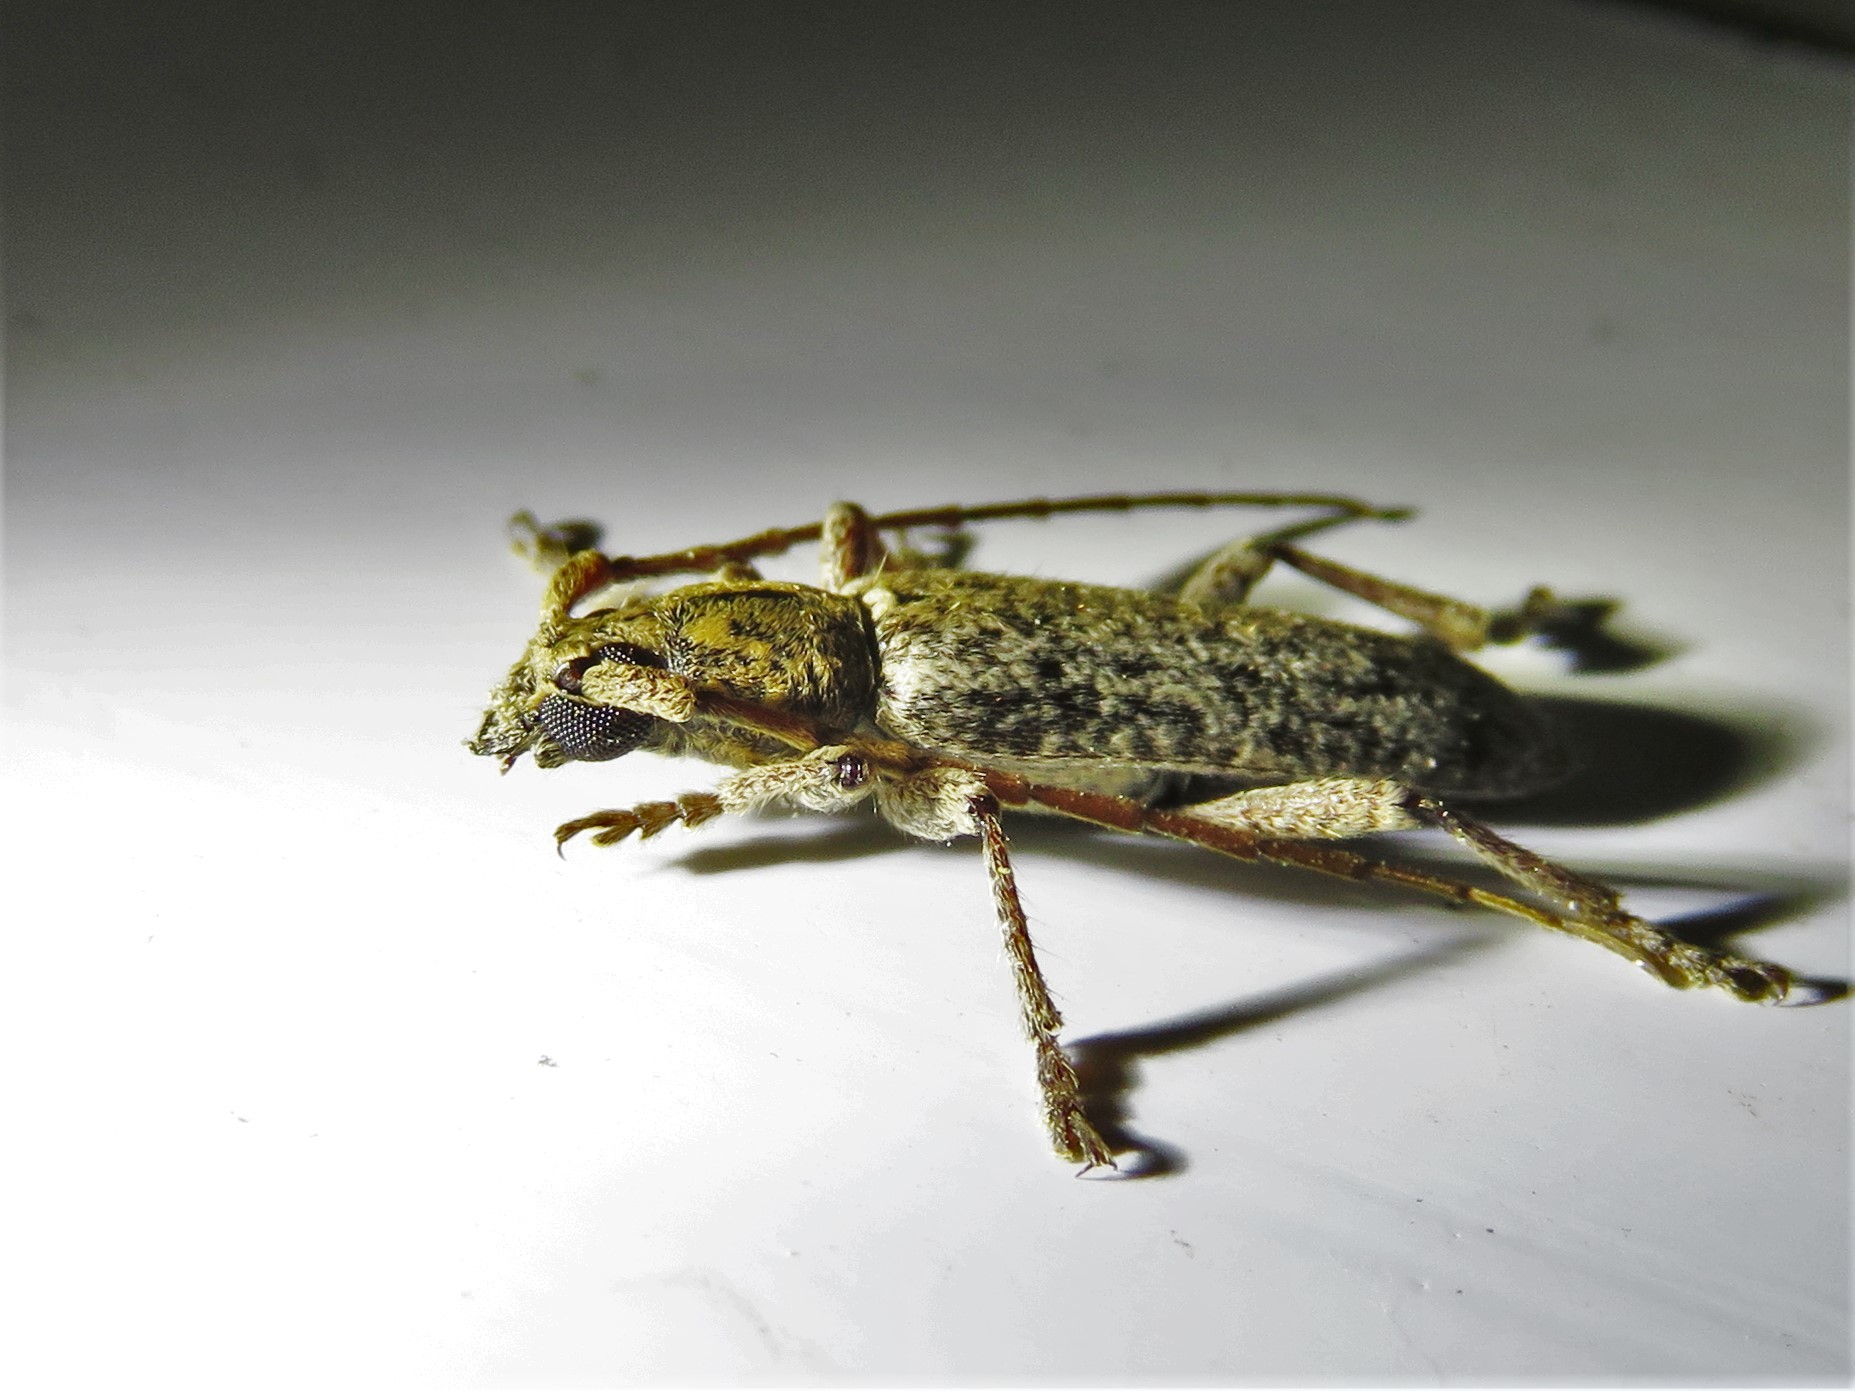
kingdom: Animalia
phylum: Arthropoda
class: Insecta
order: Coleoptera
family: Cerambycidae
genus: Anelaphus
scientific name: Anelaphus debilis
